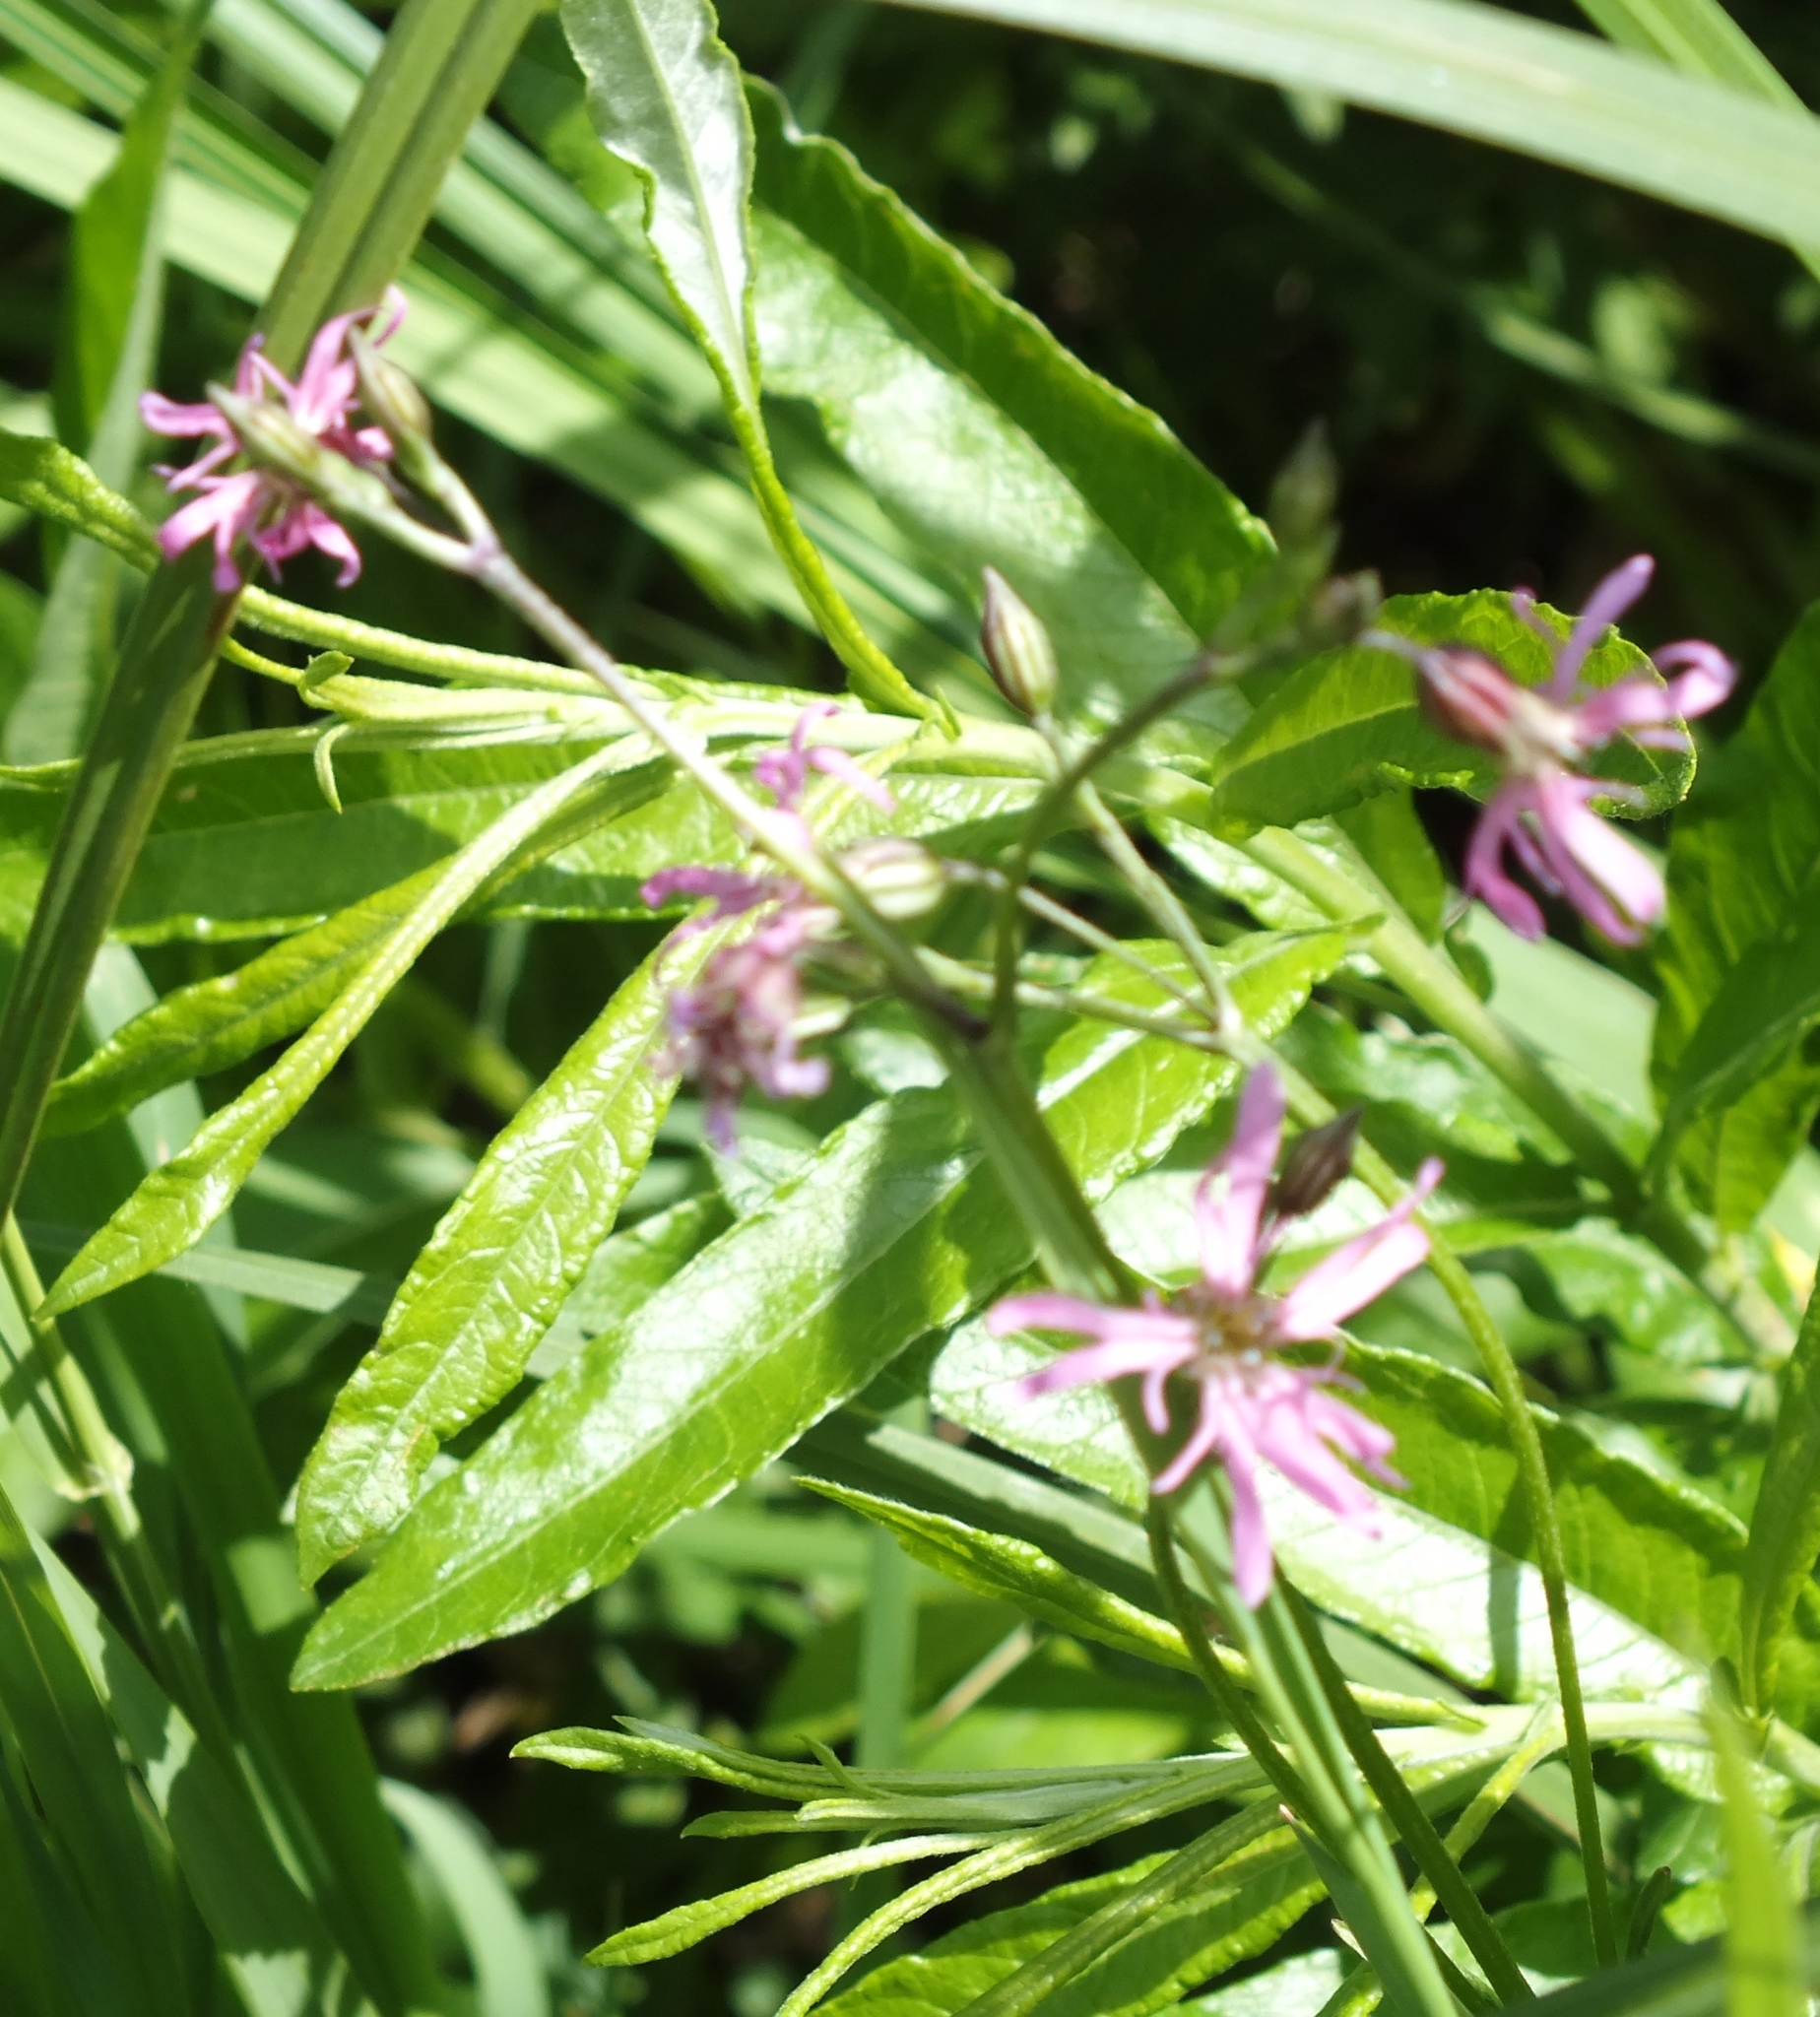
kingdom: Plantae
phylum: Tracheophyta
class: Magnoliopsida
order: Caryophyllales
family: Caryophyllaceae
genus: Silene
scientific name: Silene flos-cuculi
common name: Ragged-robin
